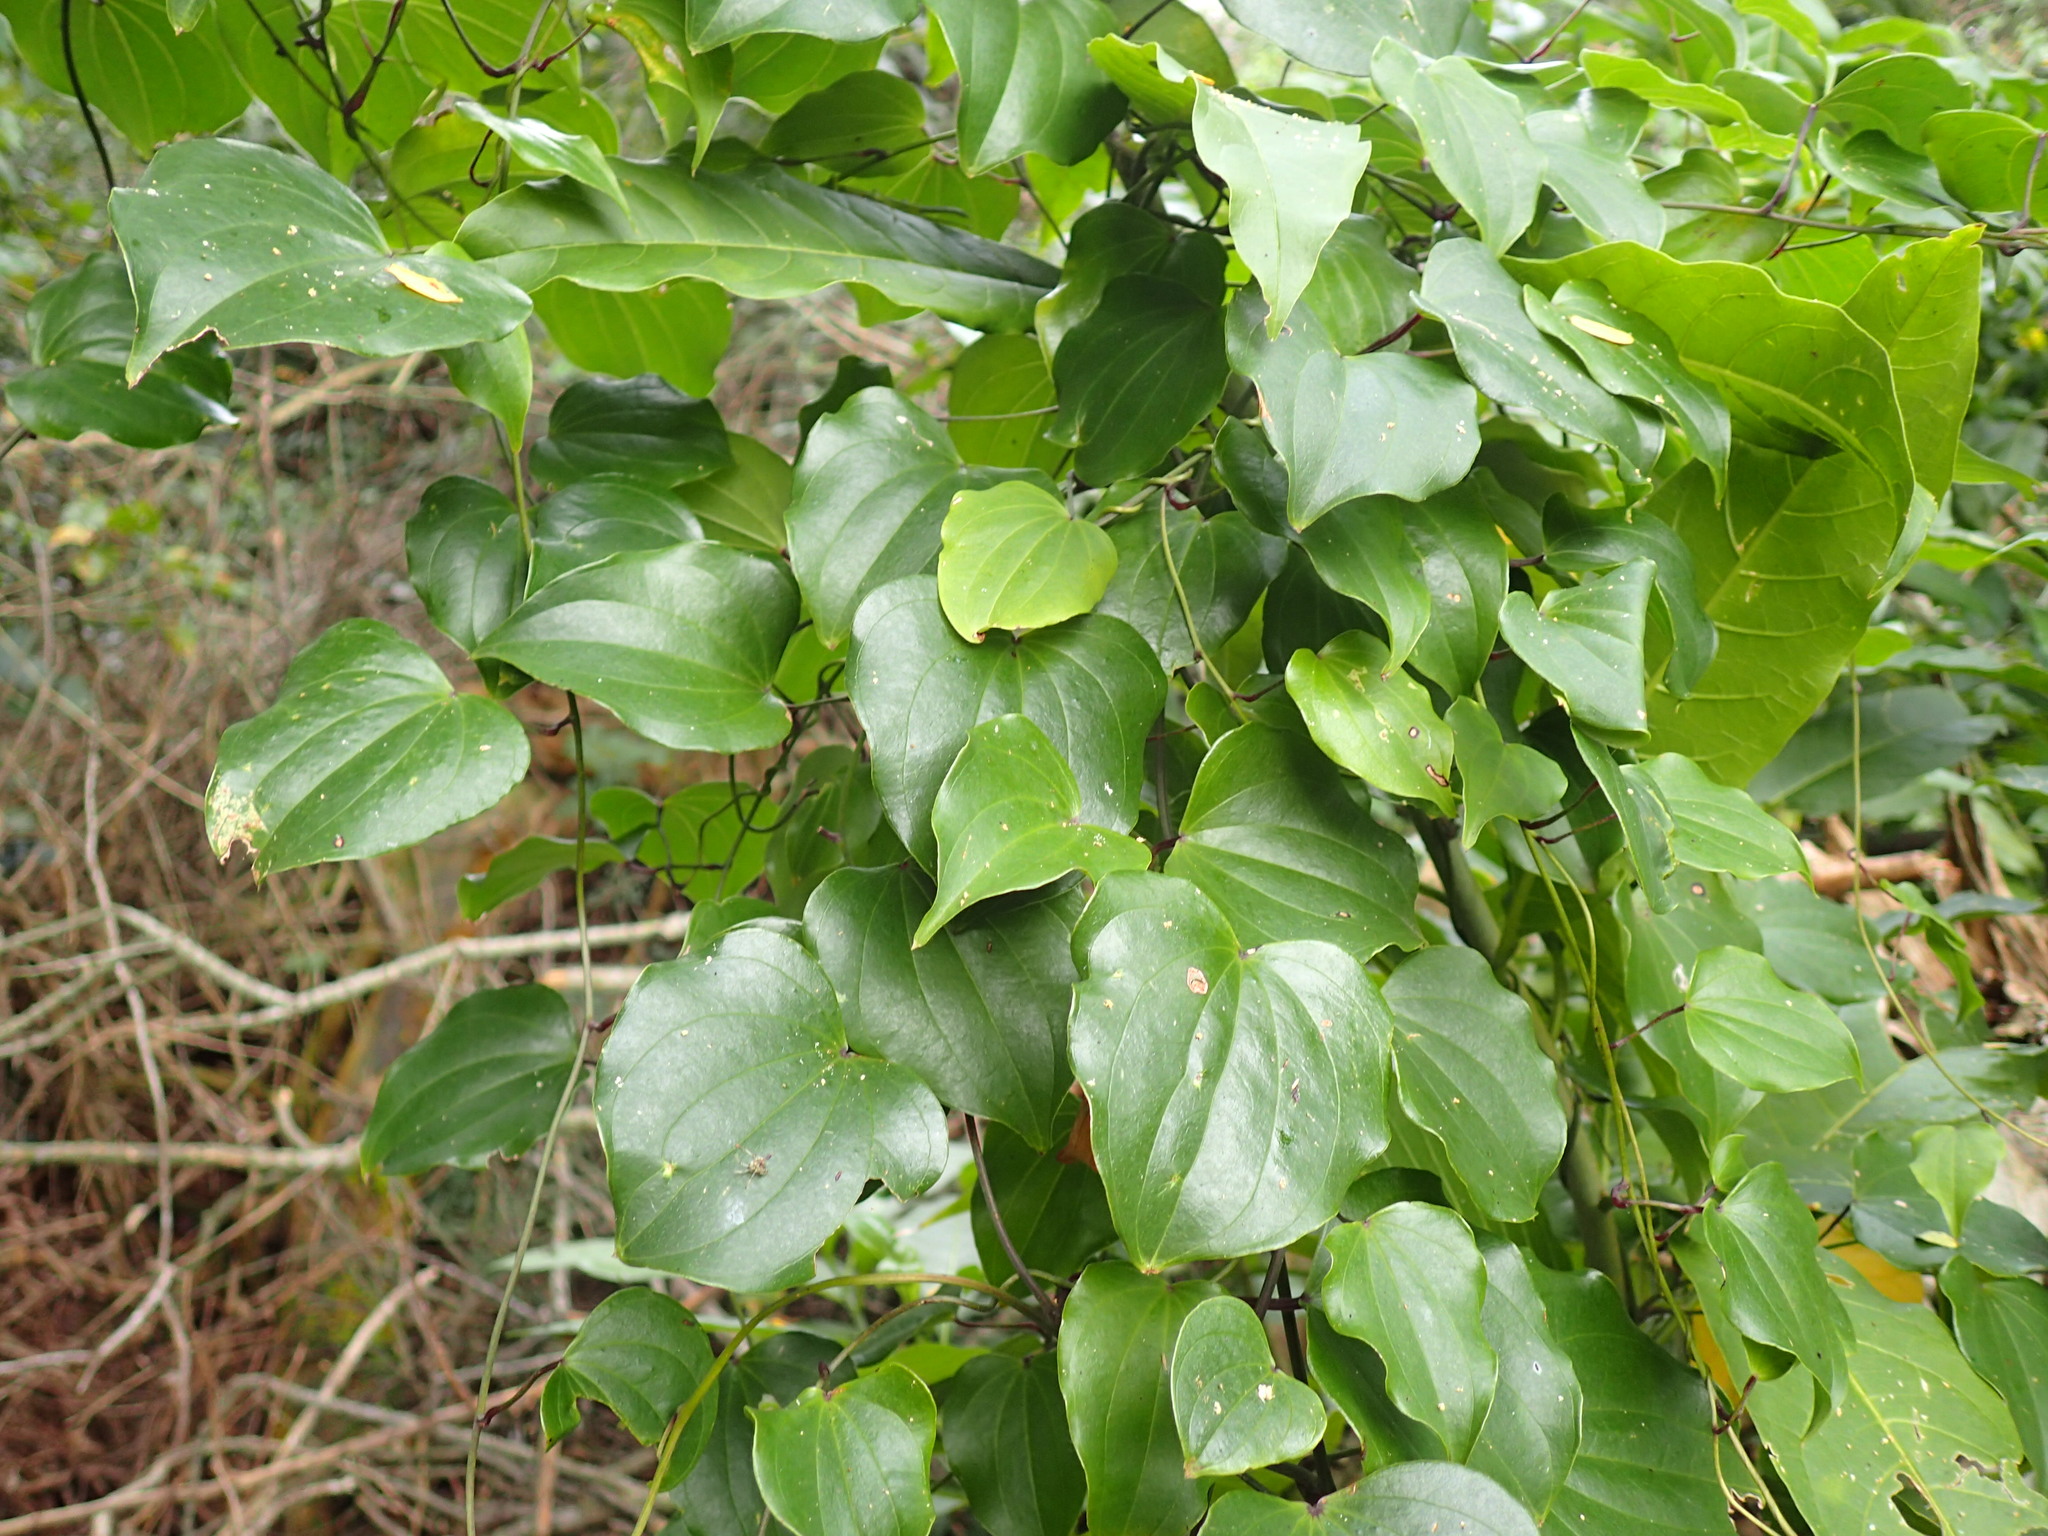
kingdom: Plantae
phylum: Tracheophyta
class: Liliopsida
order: Dioscoreales
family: Dioscoreaceae
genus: Dioscorea
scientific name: Dioscorea cotinifolia
